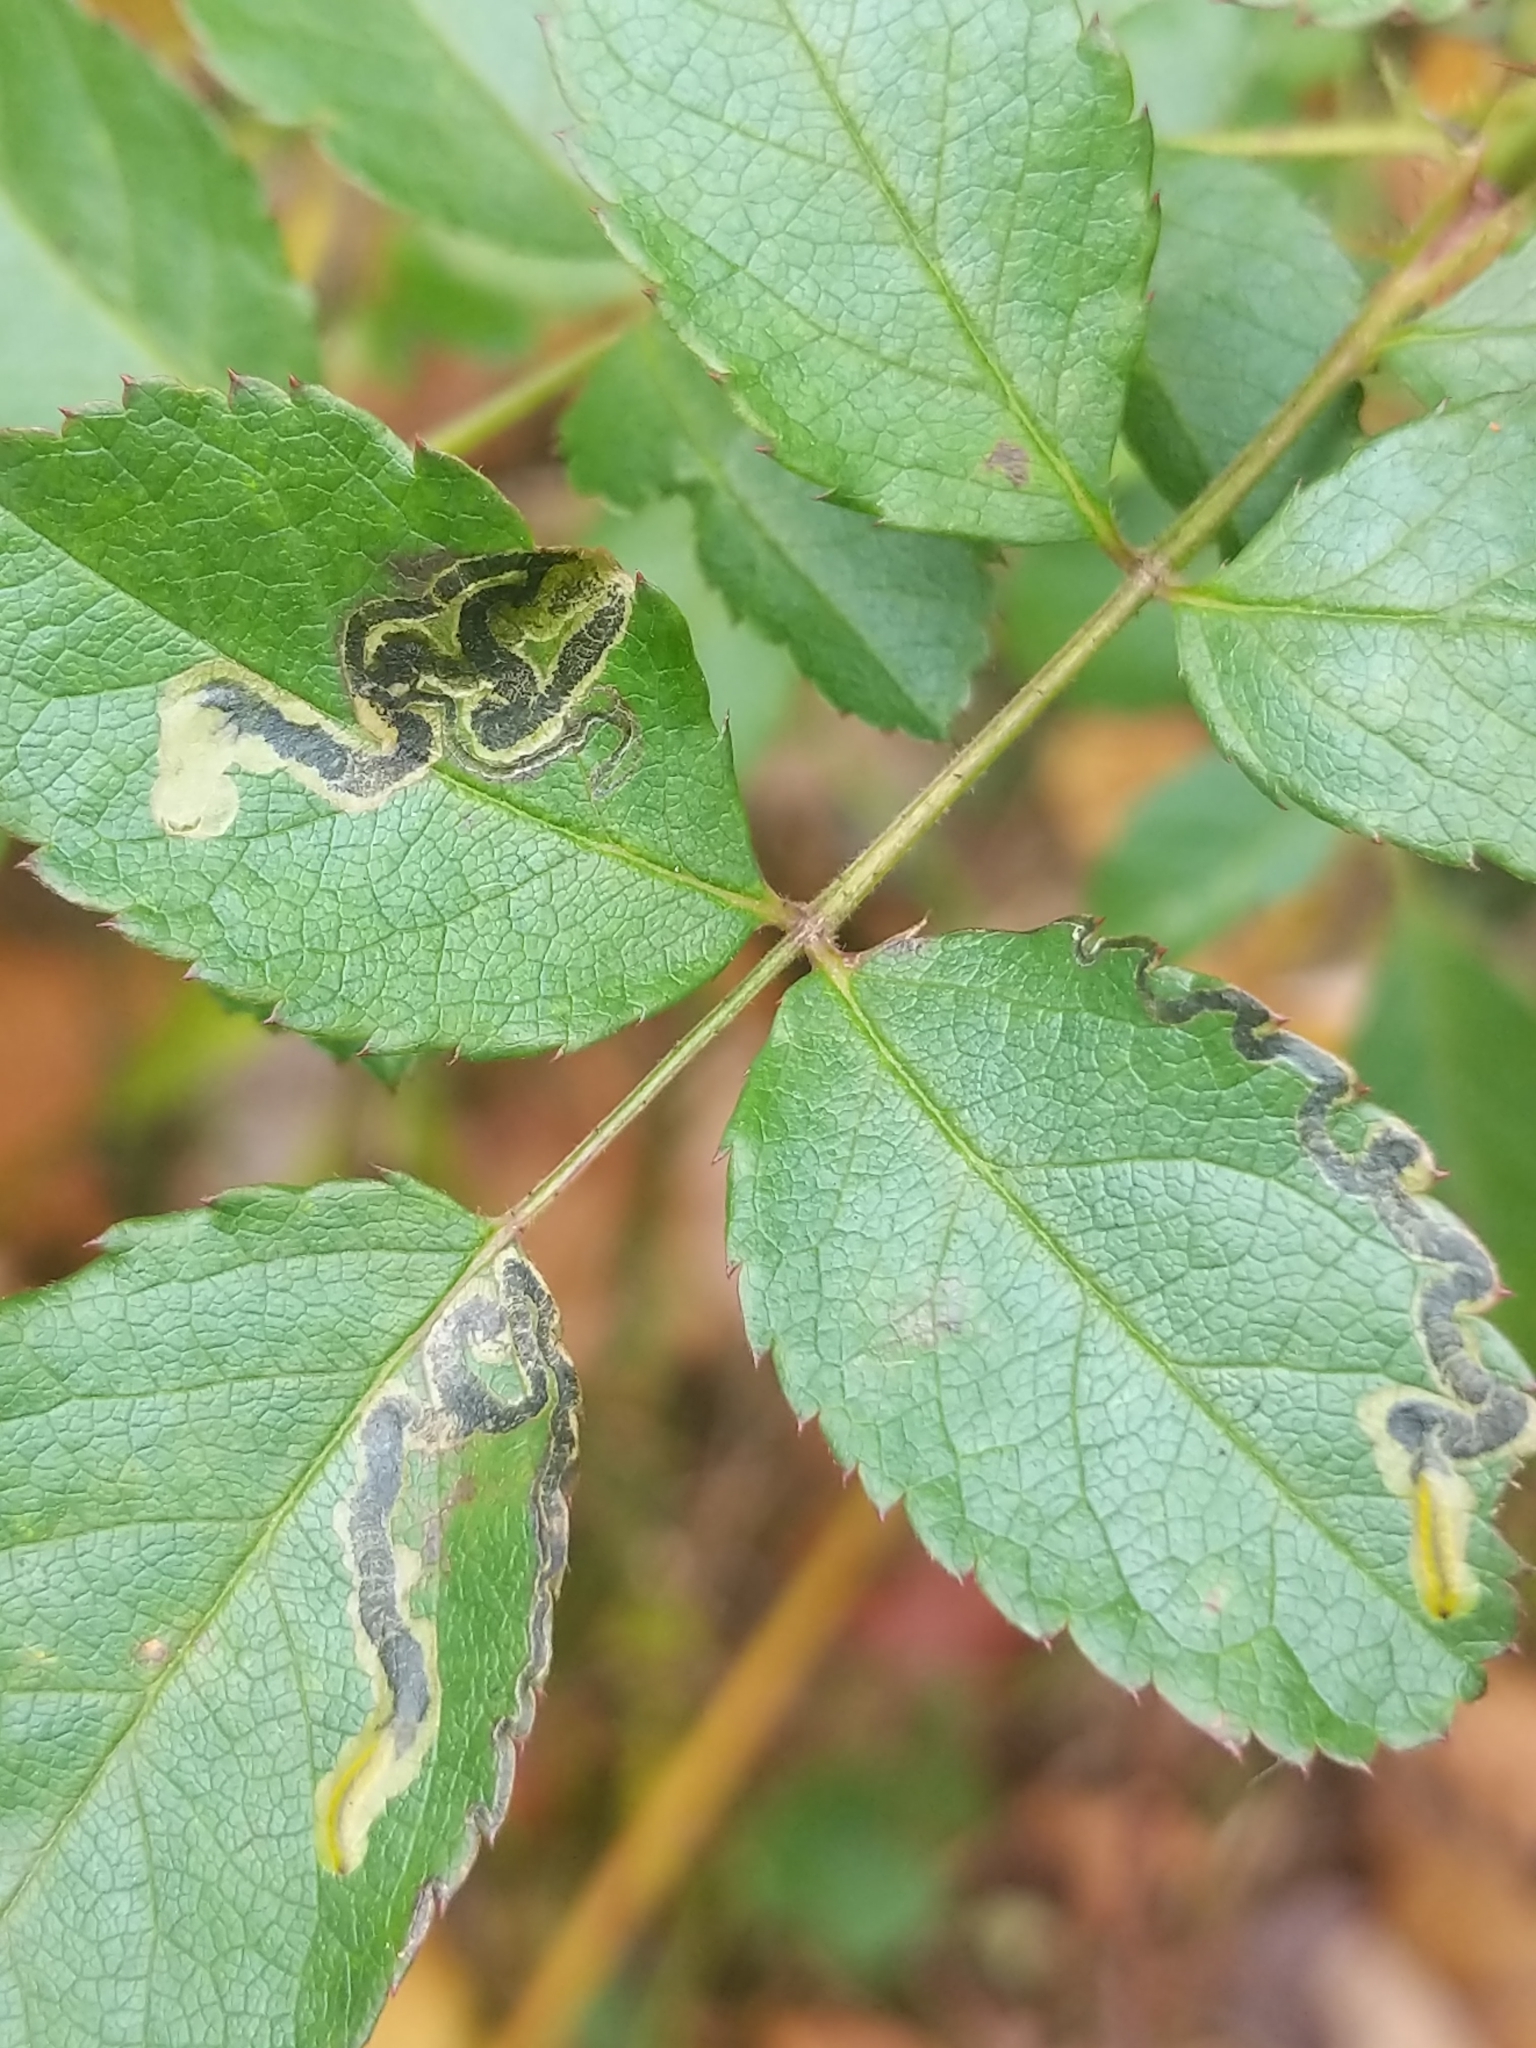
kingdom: Animalia
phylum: Arthropoda
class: Insecta
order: Lepidoptera
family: Nepticulidae
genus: Stigmella
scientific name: Stigmella rosaefoliella
